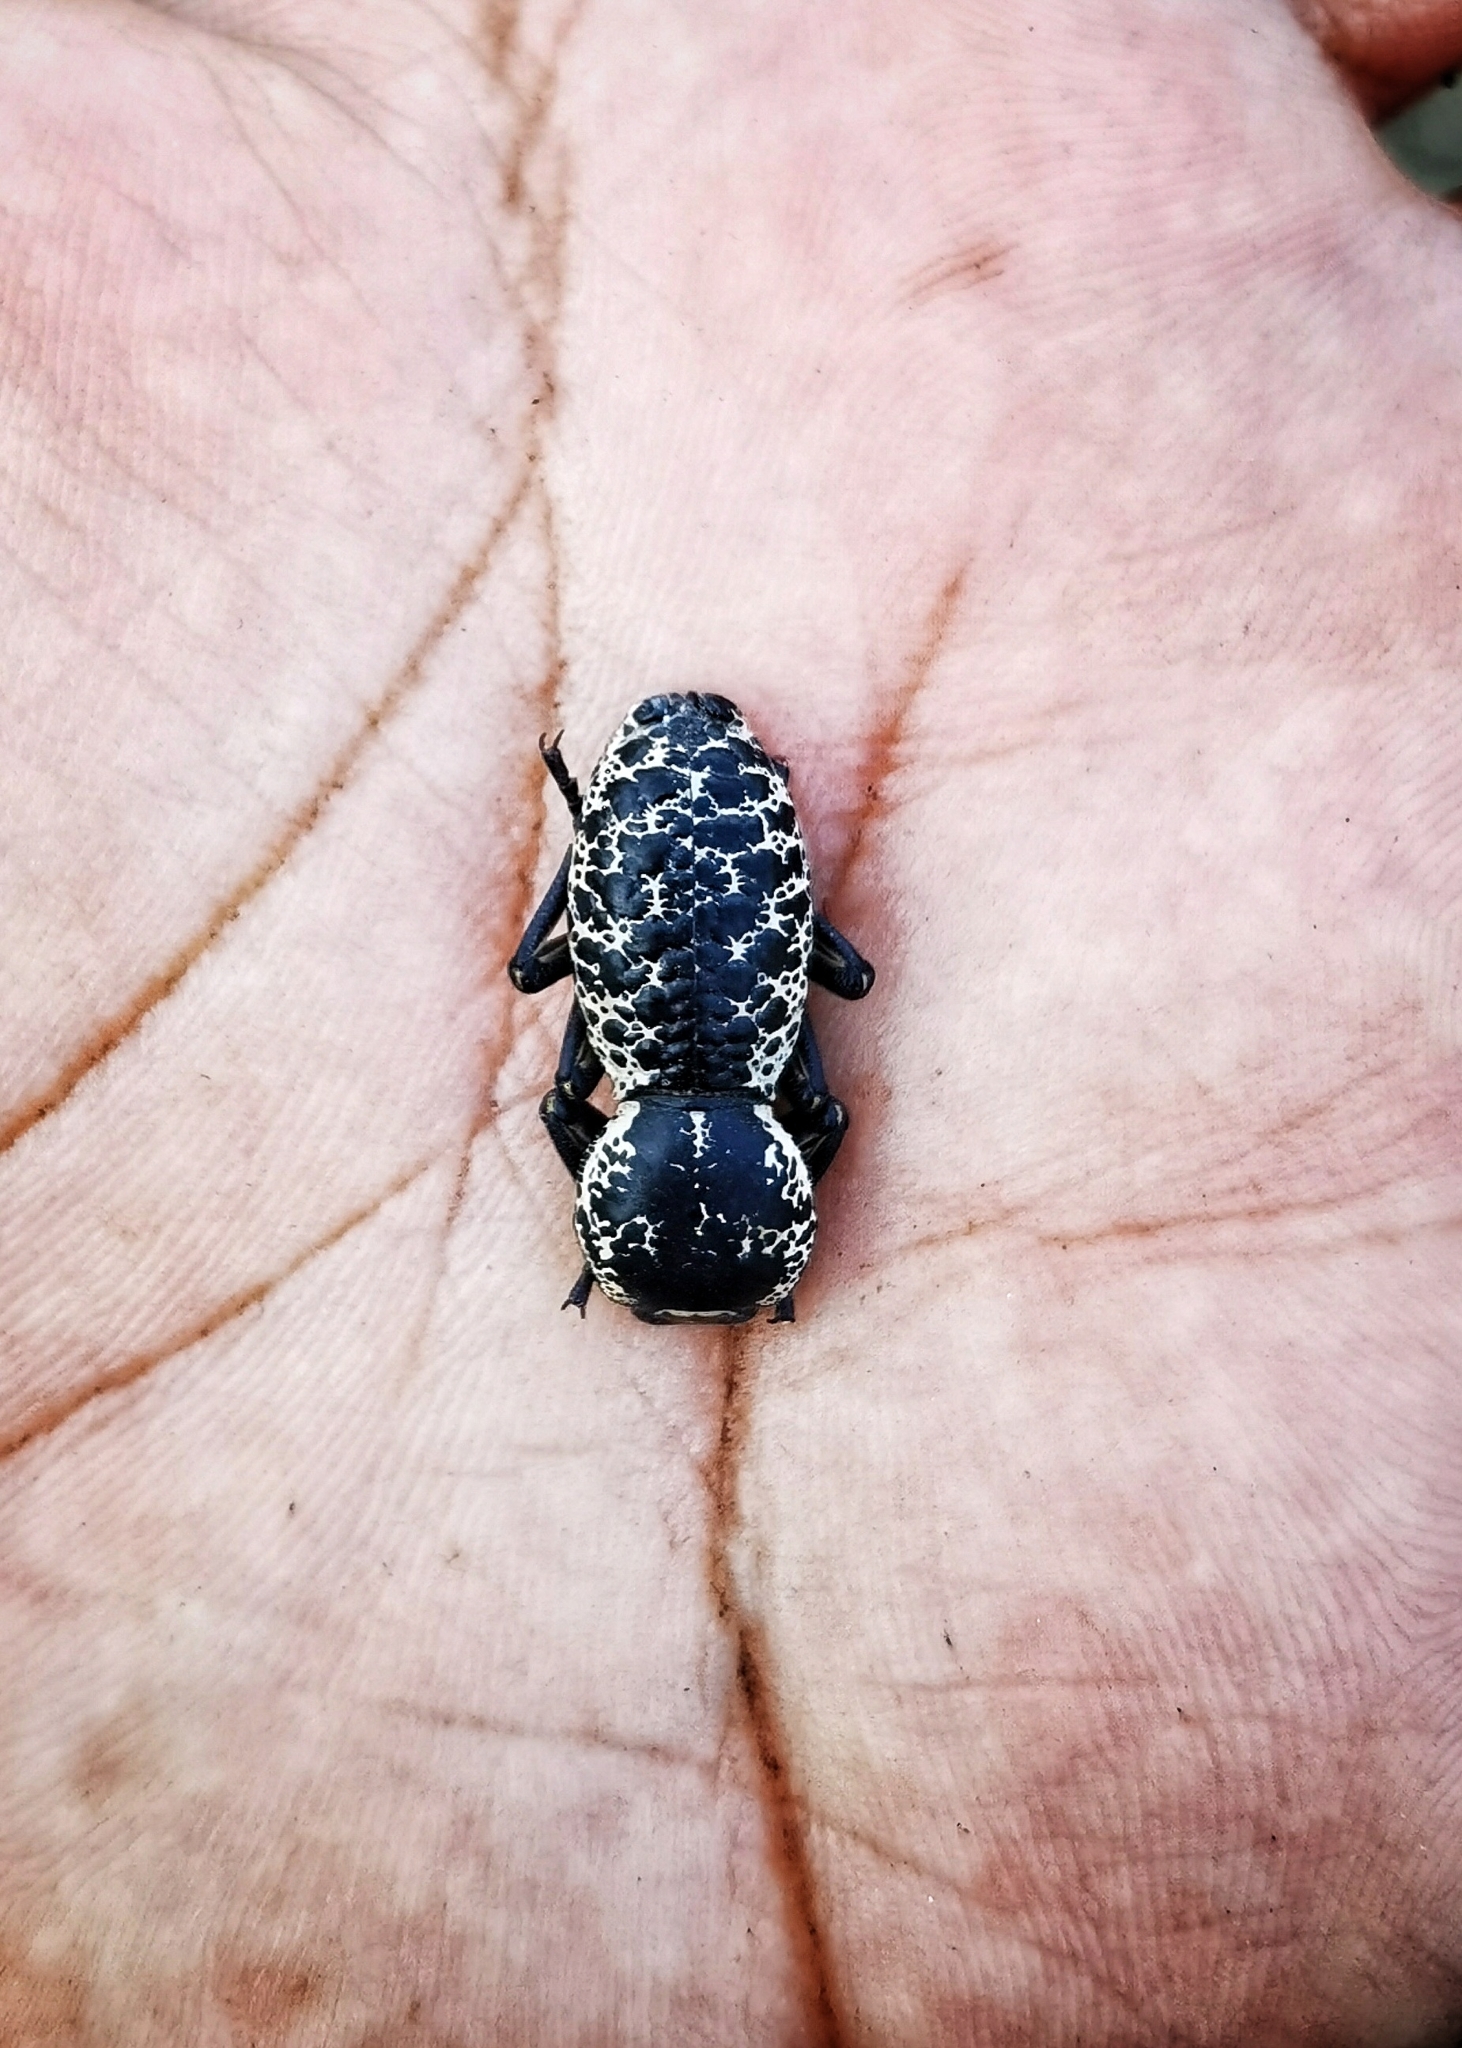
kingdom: Animalia
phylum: Arthropoda
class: Insecta
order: Coleoptera
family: Zopheridae
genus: Zopherus
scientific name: Zopherus nodulosus
